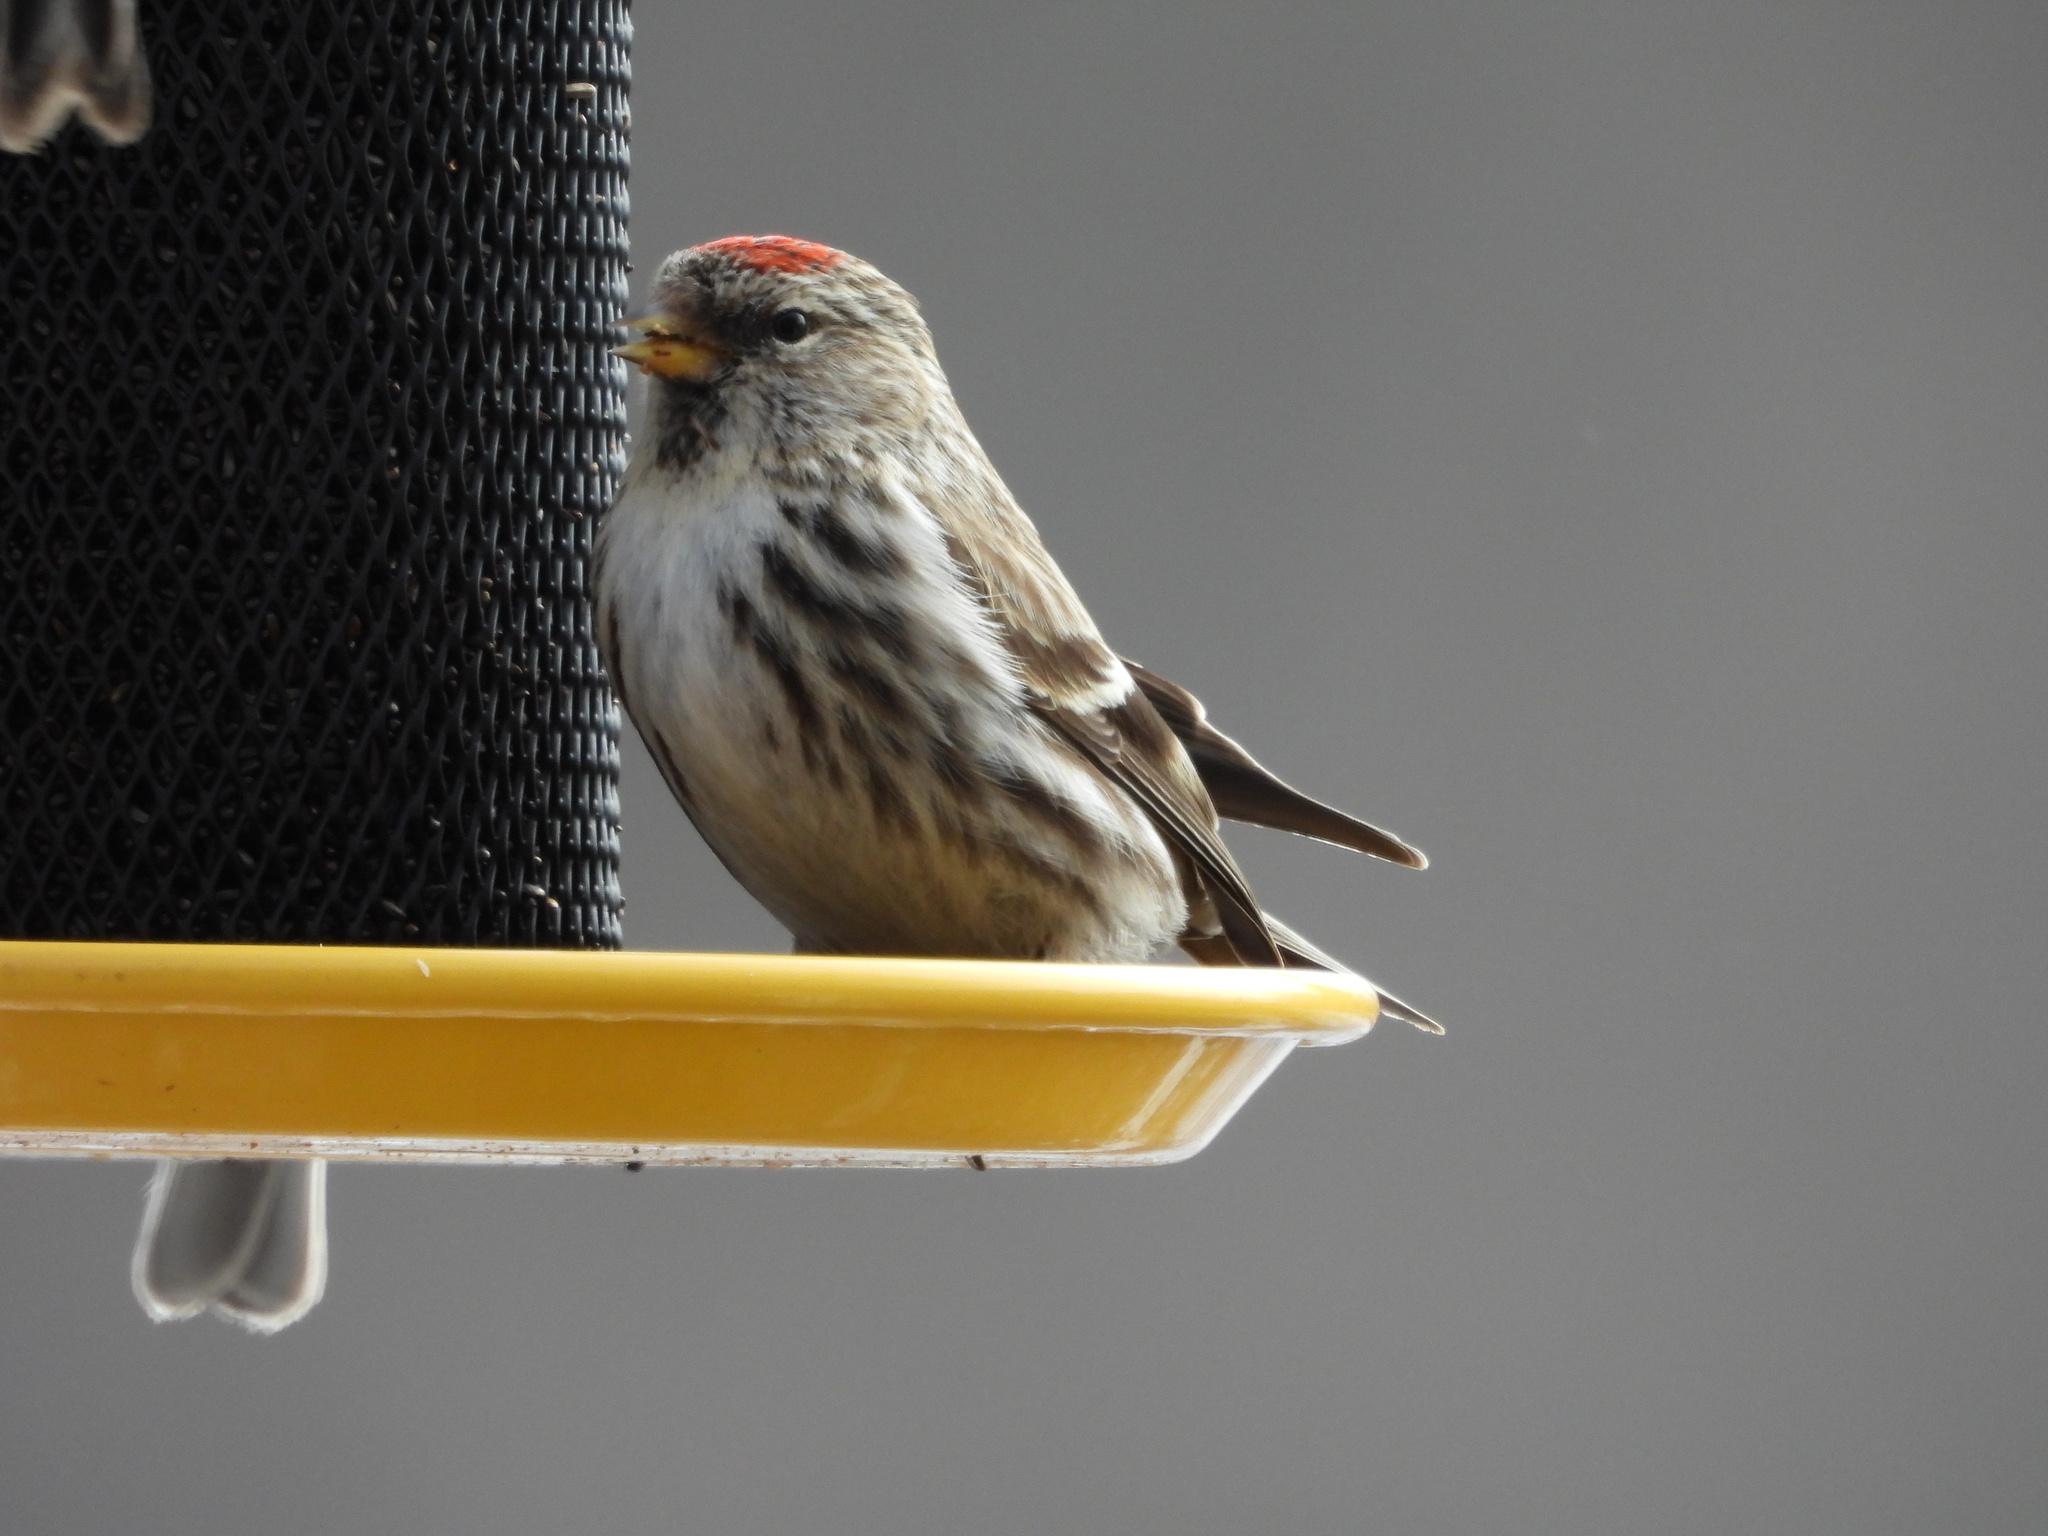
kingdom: Animalia
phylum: Chordata
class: Aves
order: Passeriformes
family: Fringillidae
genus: Acanthis
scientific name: Acanthis flammea
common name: Common redpoll
